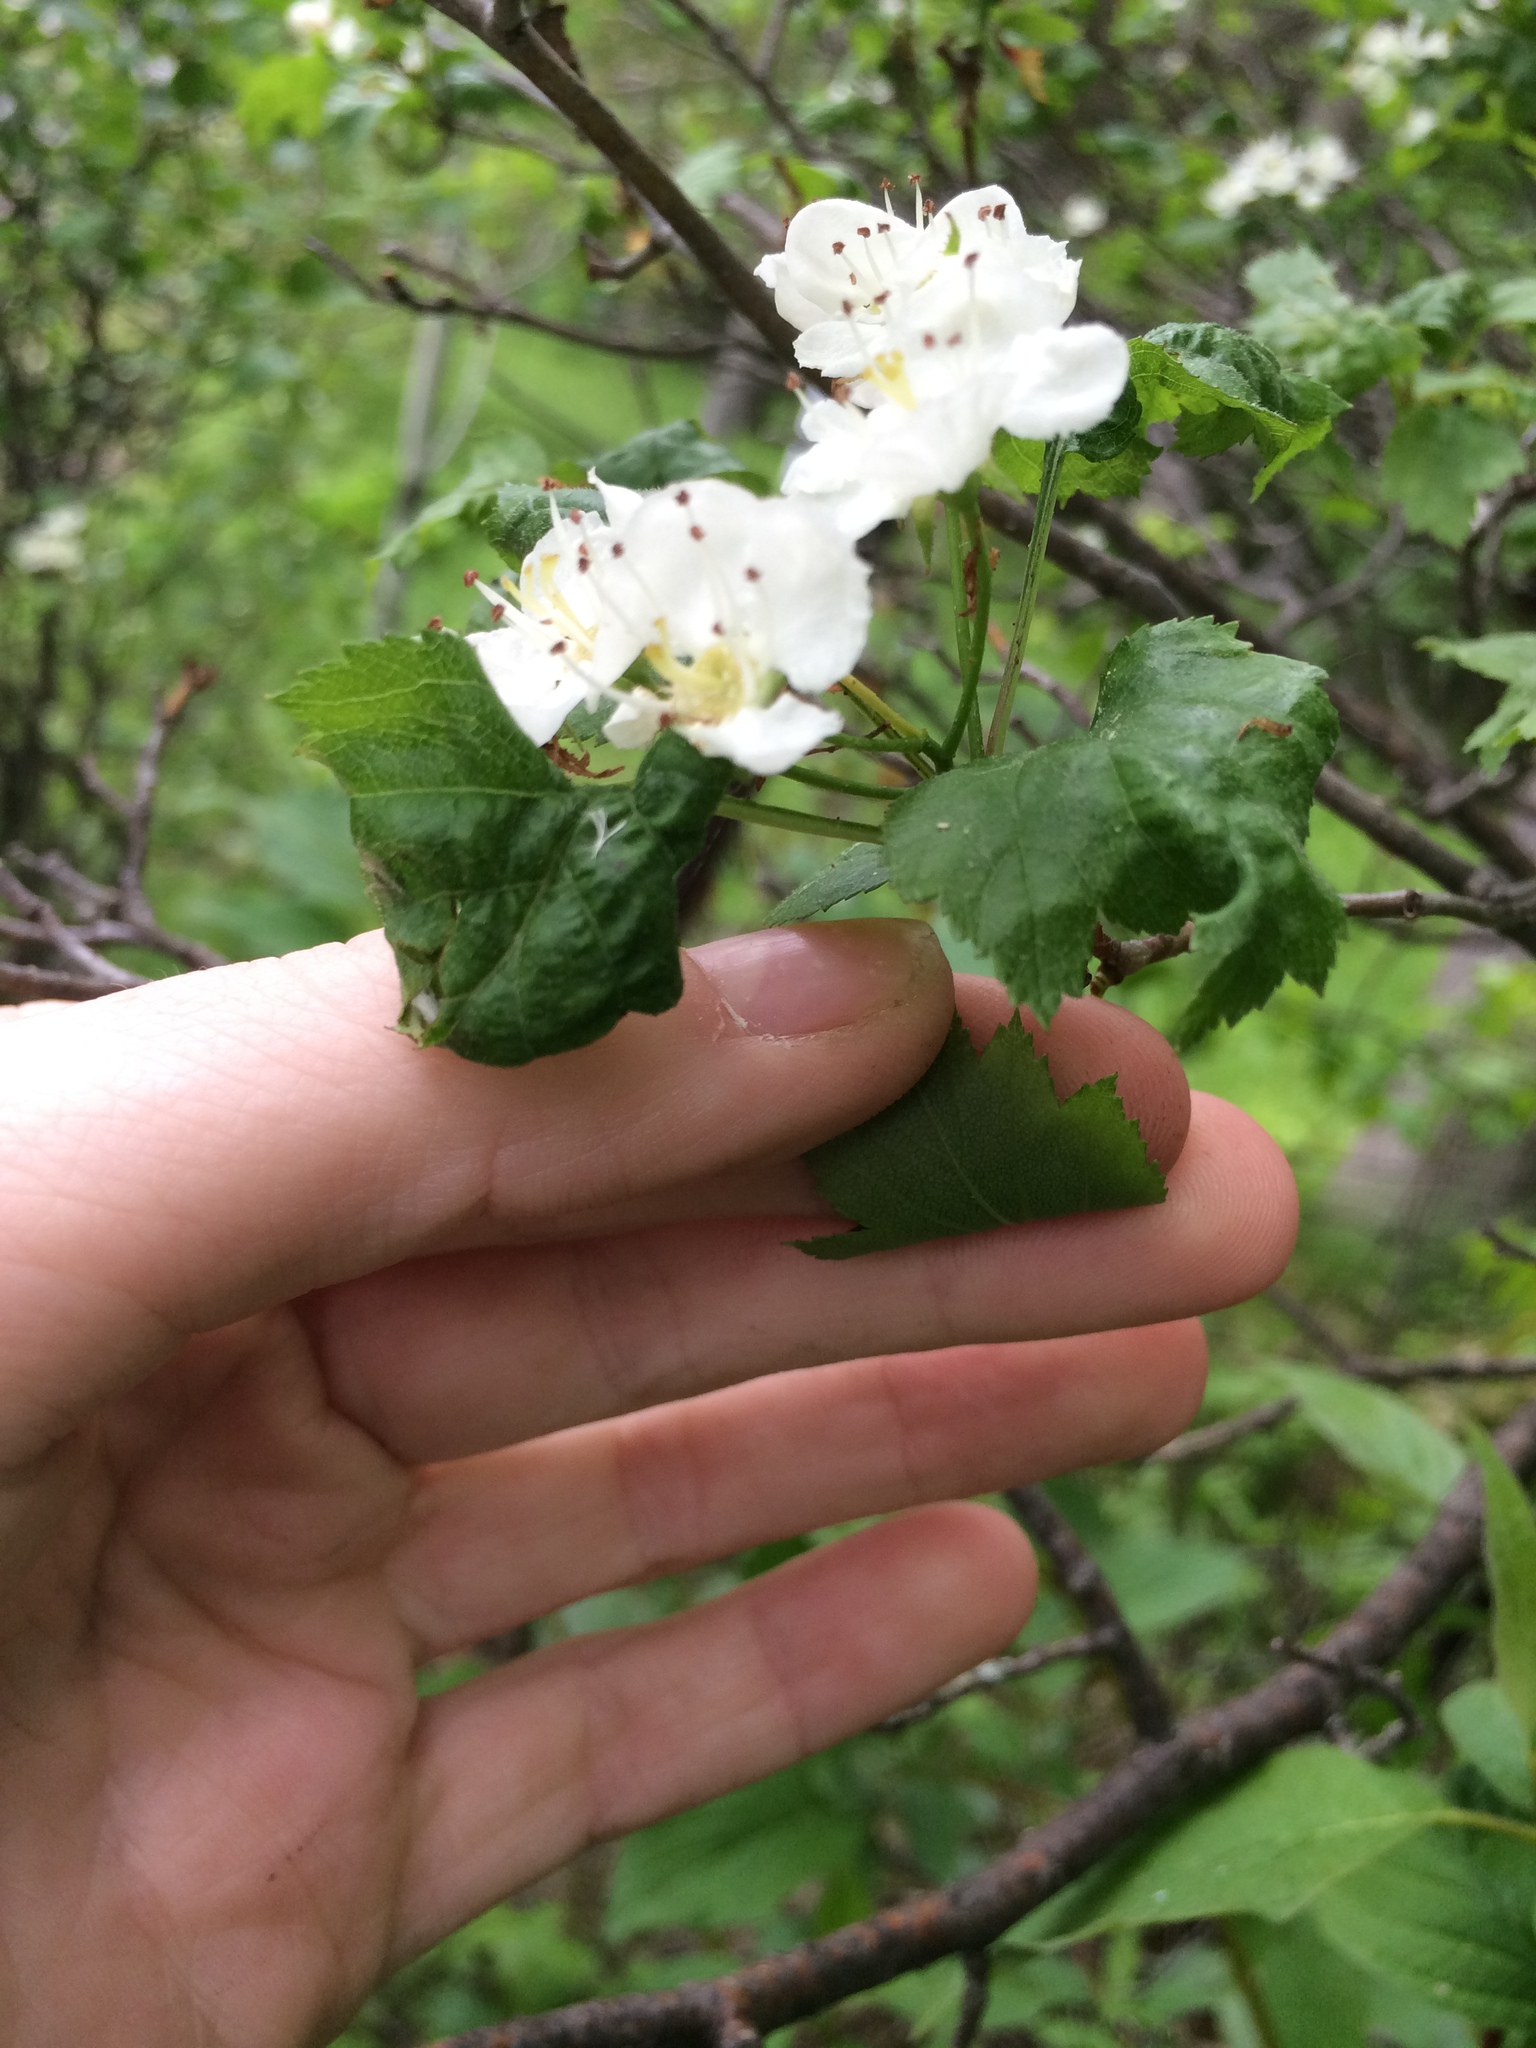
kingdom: Plantae
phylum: Tracheophyta
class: Magnoliopsida
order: Rosales
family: Rosaceae
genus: Crataegus
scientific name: Crataegus fluviatilis
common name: Fort sheridan hawthorn
